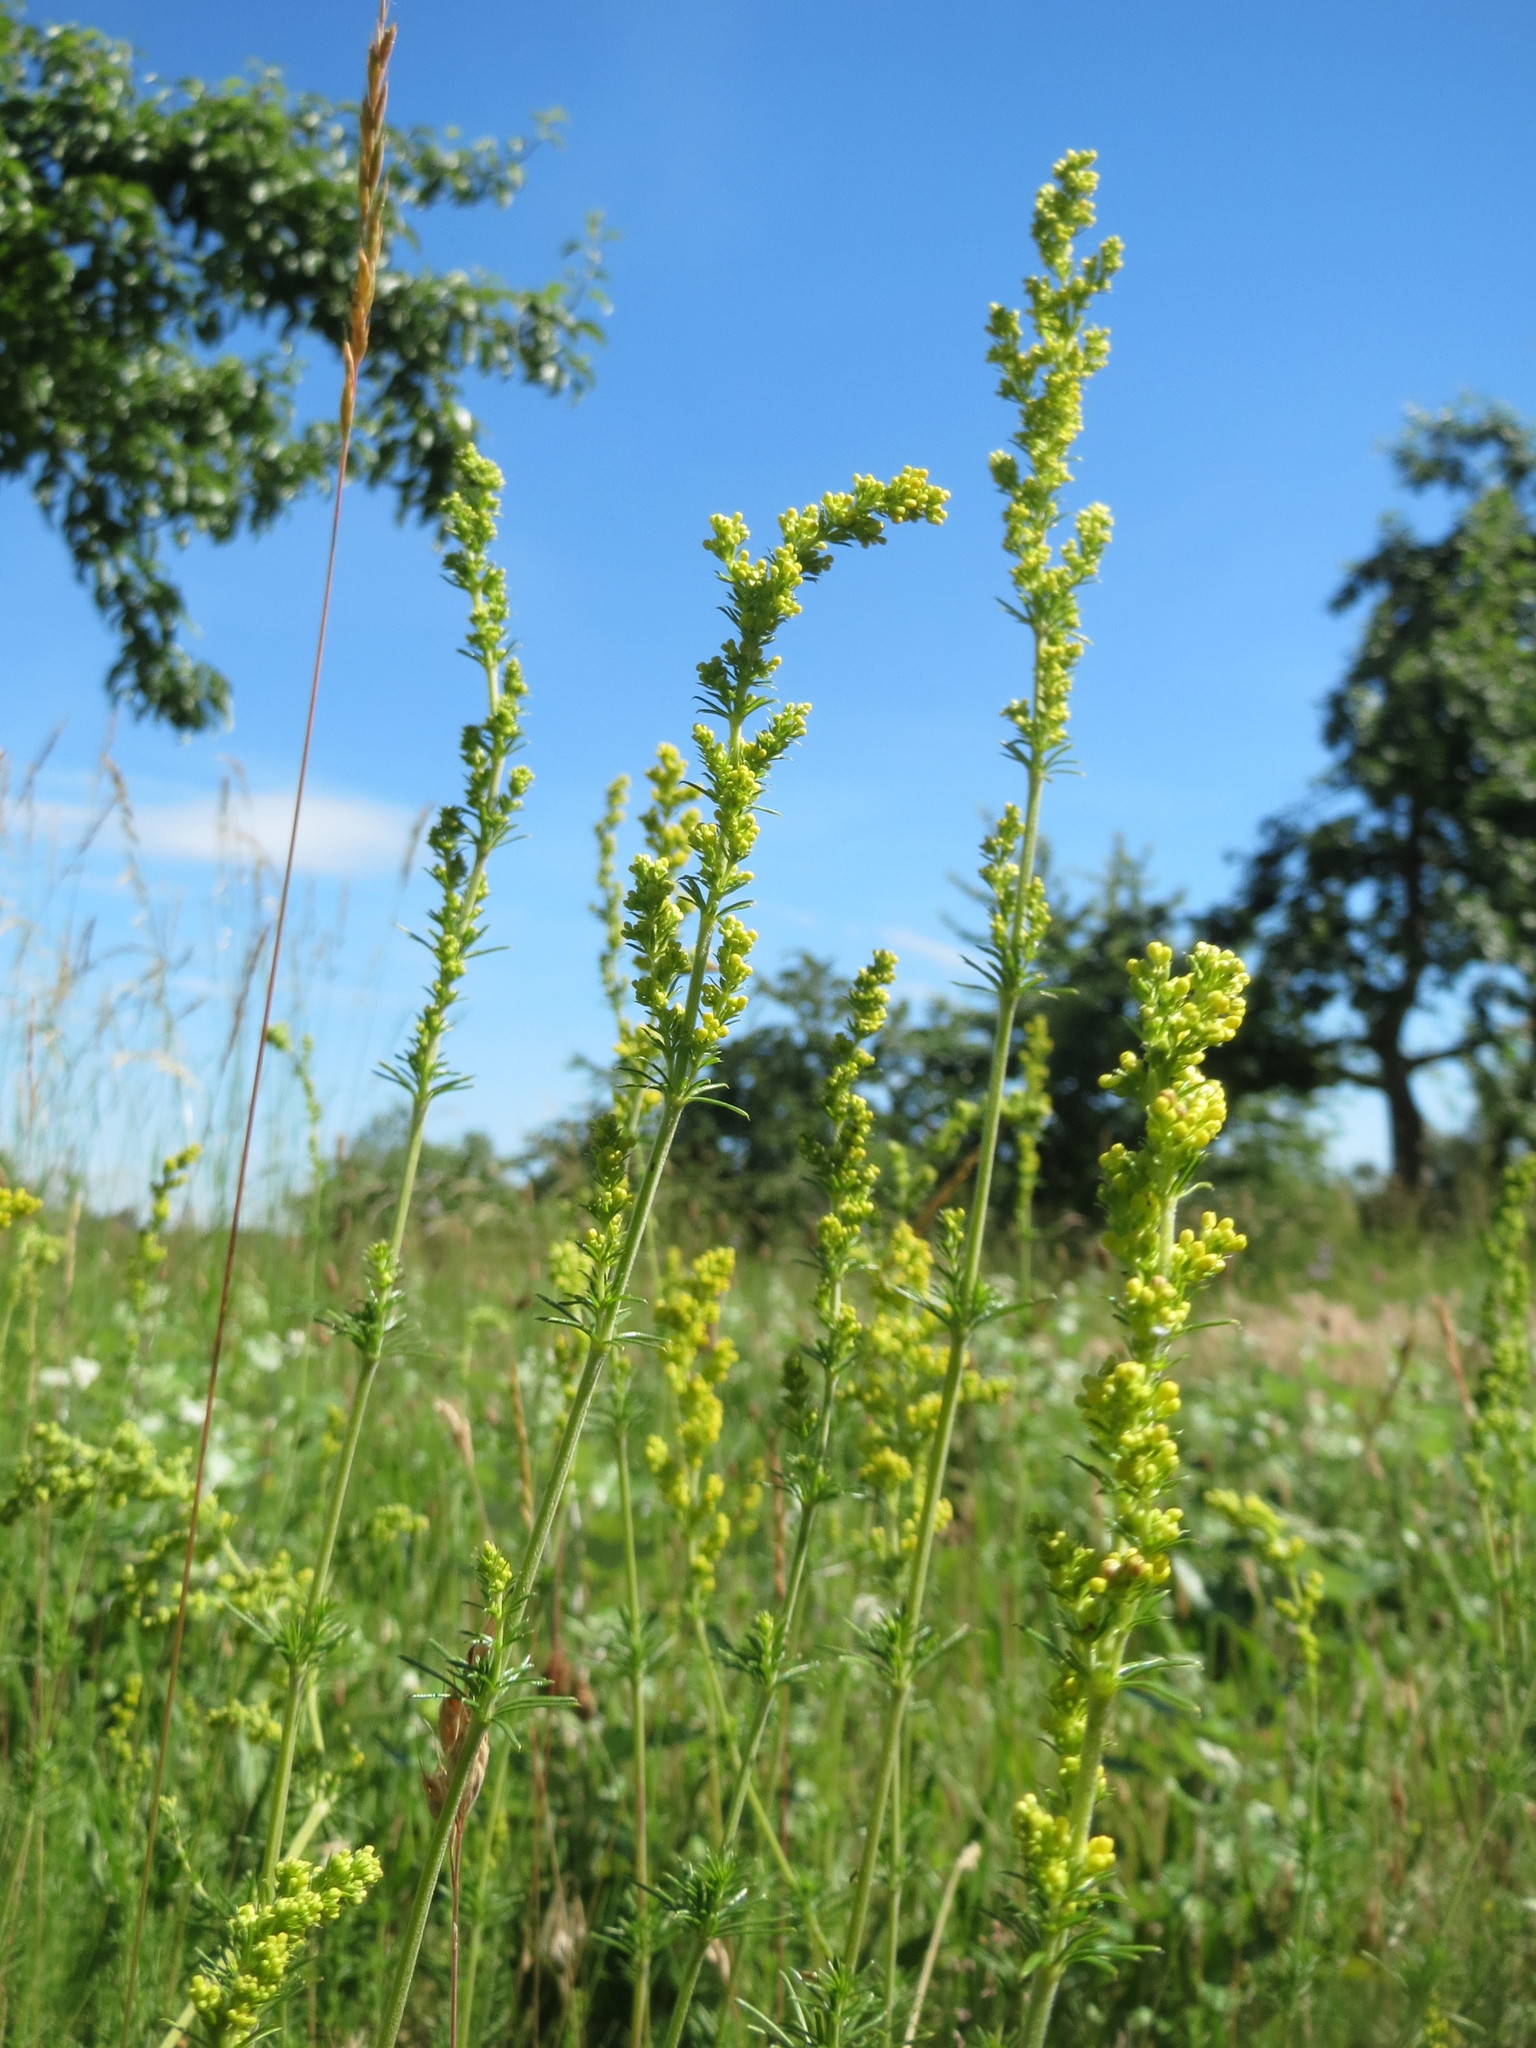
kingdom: Plantae
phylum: Tracheophyta
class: Magnoliopsida
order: Gentianales
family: Rubiaceae
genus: Galium
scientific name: Galium verum
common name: Lady's bedstraw
